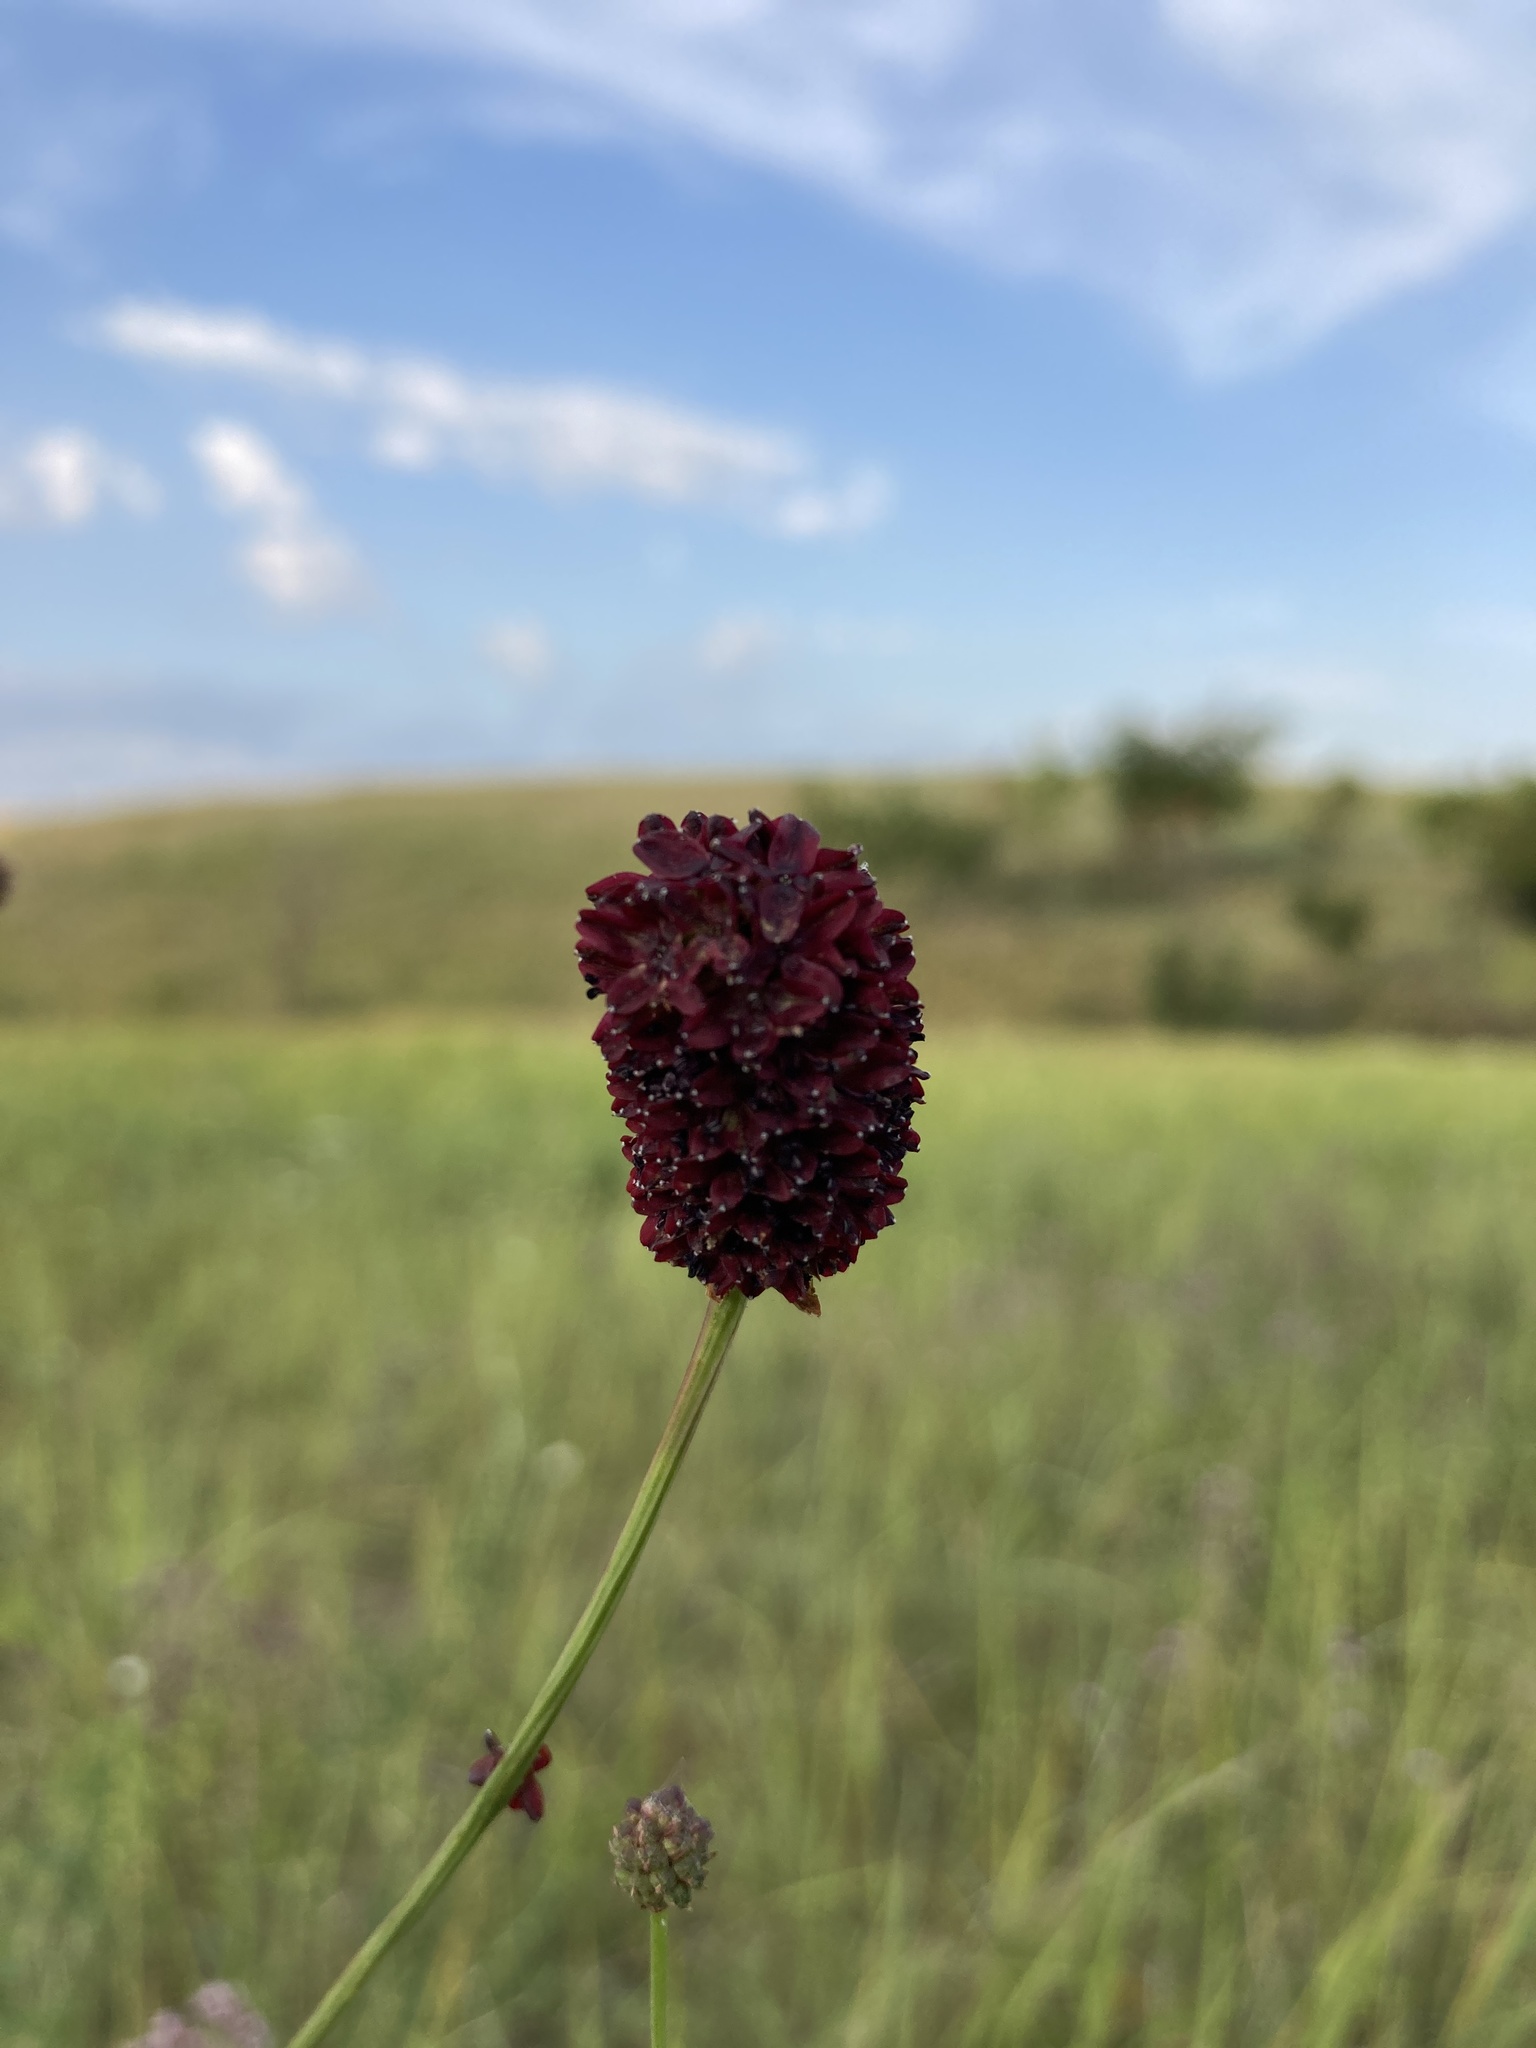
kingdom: Plantae
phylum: Tracheophyta
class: Magnoliopsida
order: Rosales
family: Rosaceae
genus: Sanguisorba
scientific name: Sanguisorba officinalis
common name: Great burnet
